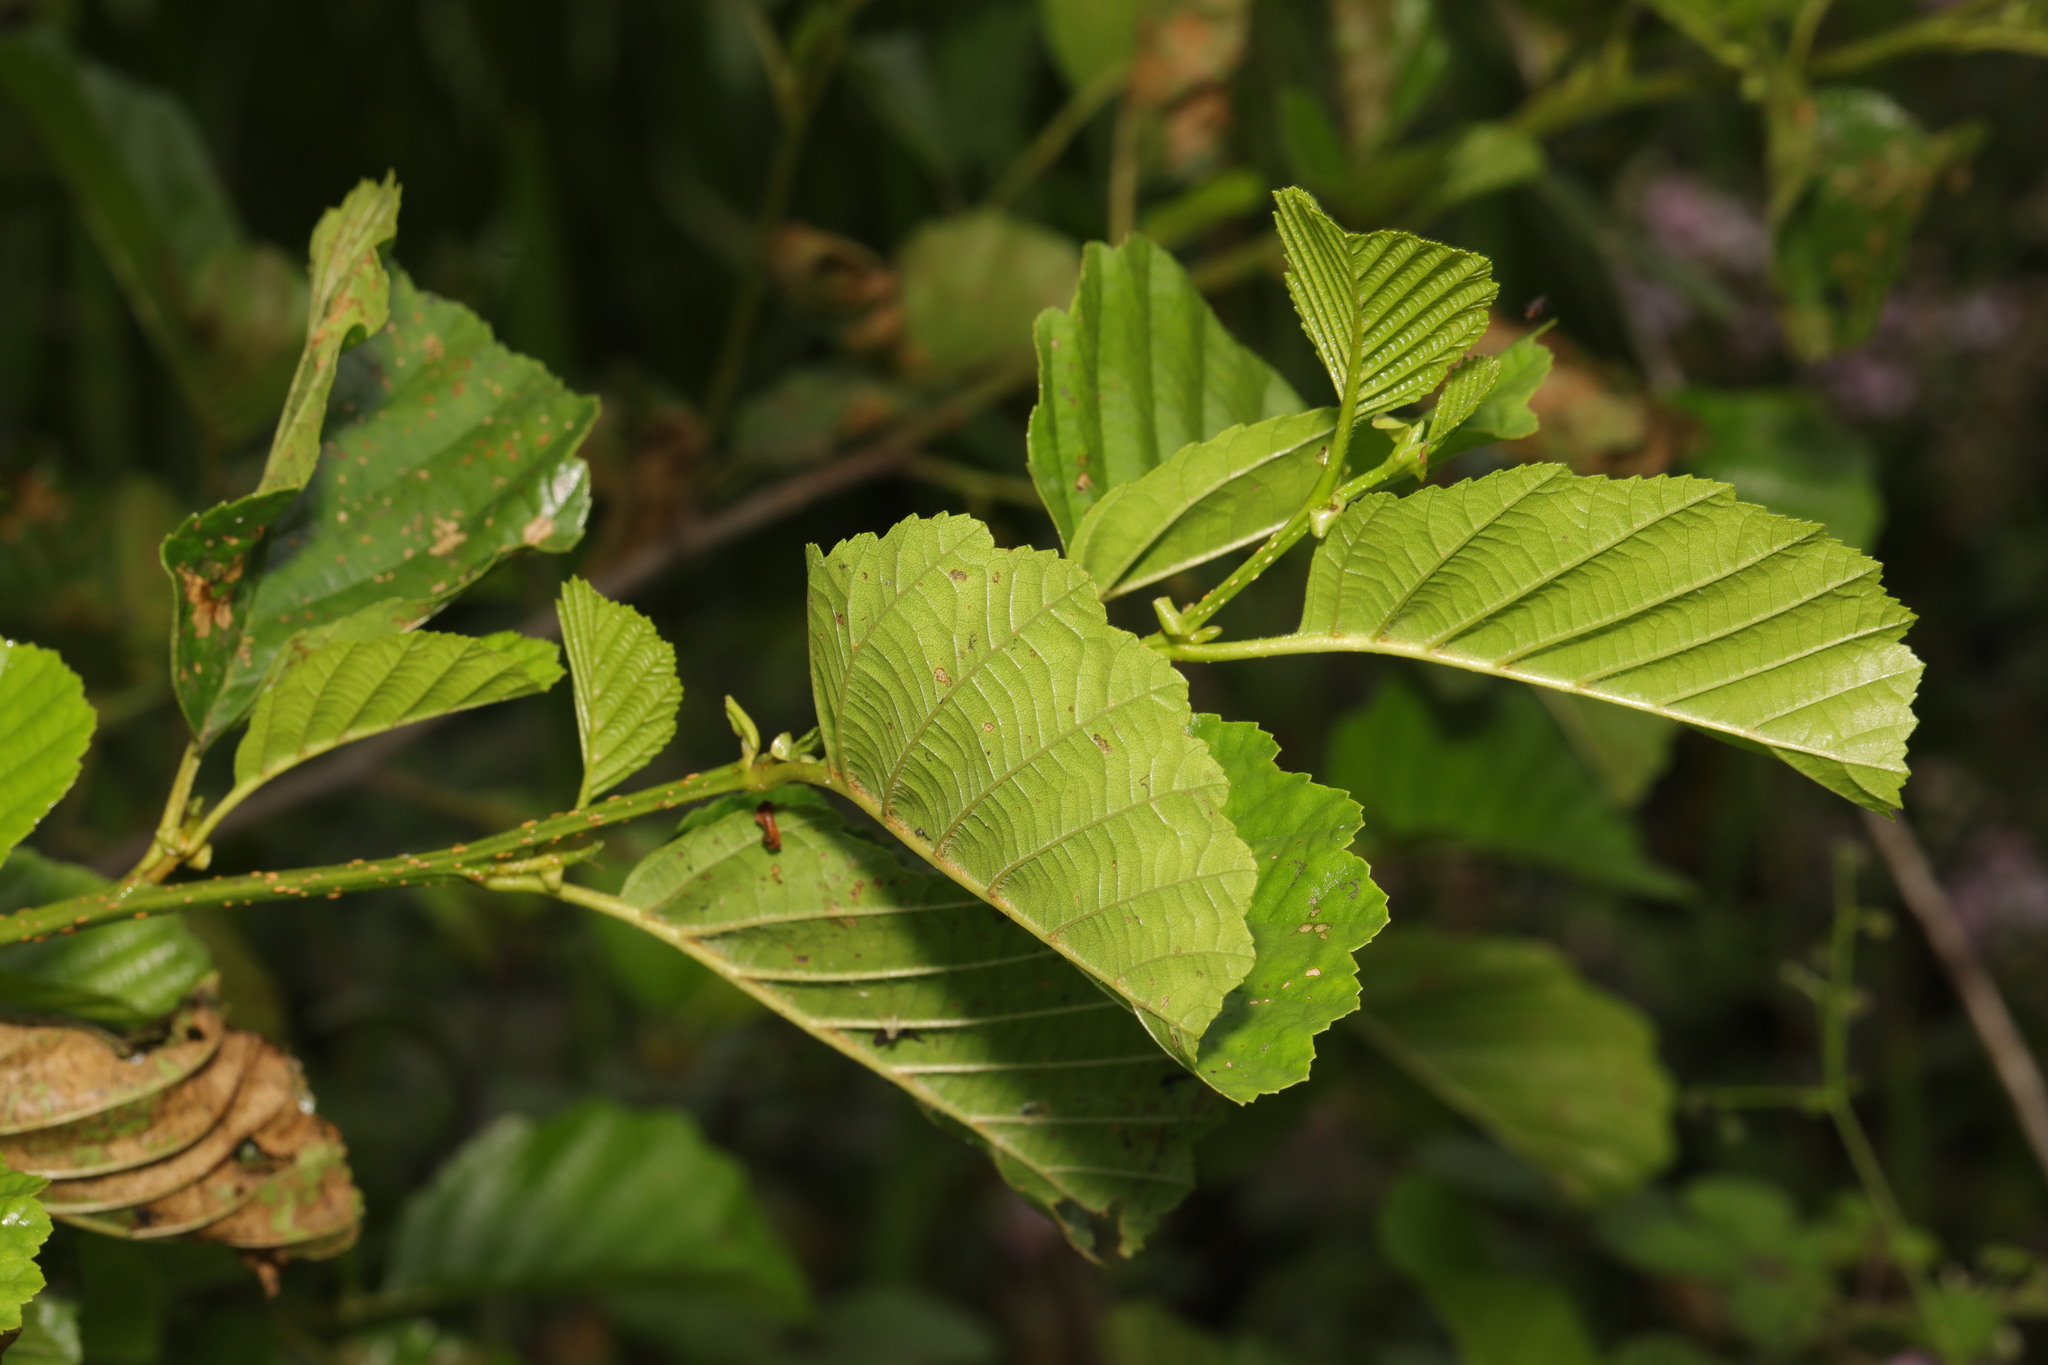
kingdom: Plantae
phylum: Tracheophyta
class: Magnoliopsida
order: Fagales
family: Betulaceae
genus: Alnus
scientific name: Alnus glutinosa
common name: Black alder
